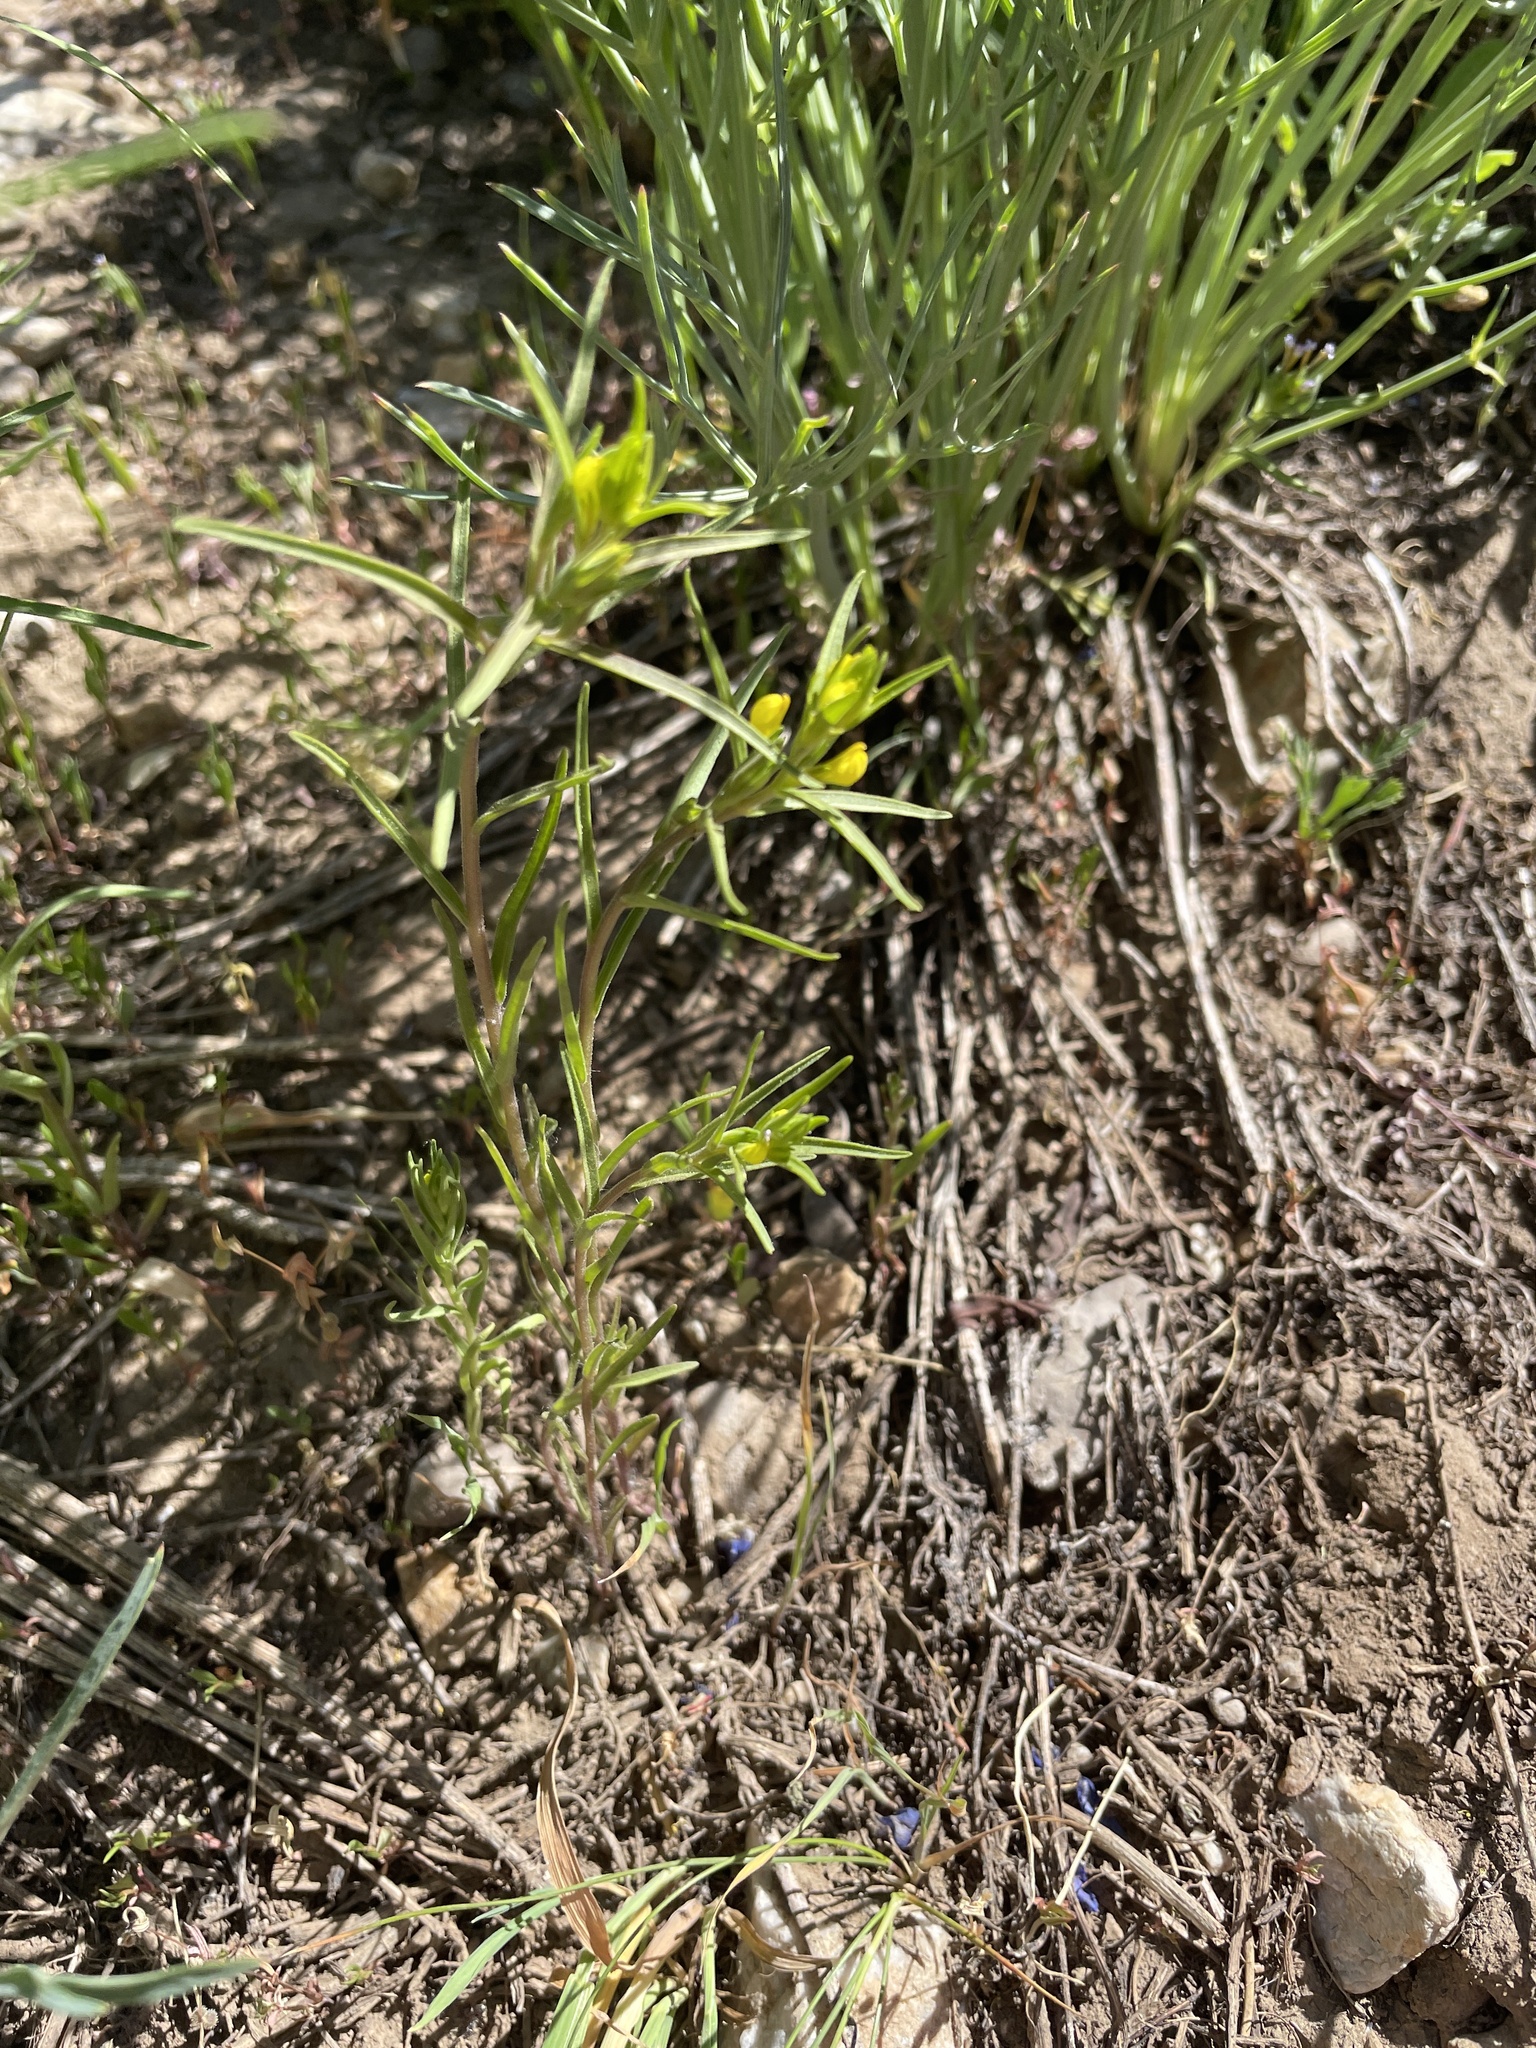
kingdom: Plantae
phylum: Tracheophyta
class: Magnoliopsida
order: Lamiales
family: Orobanchaceae
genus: Orthocarpus
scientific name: Orthocarpus tolmiei
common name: Tolmie's owl-clover
